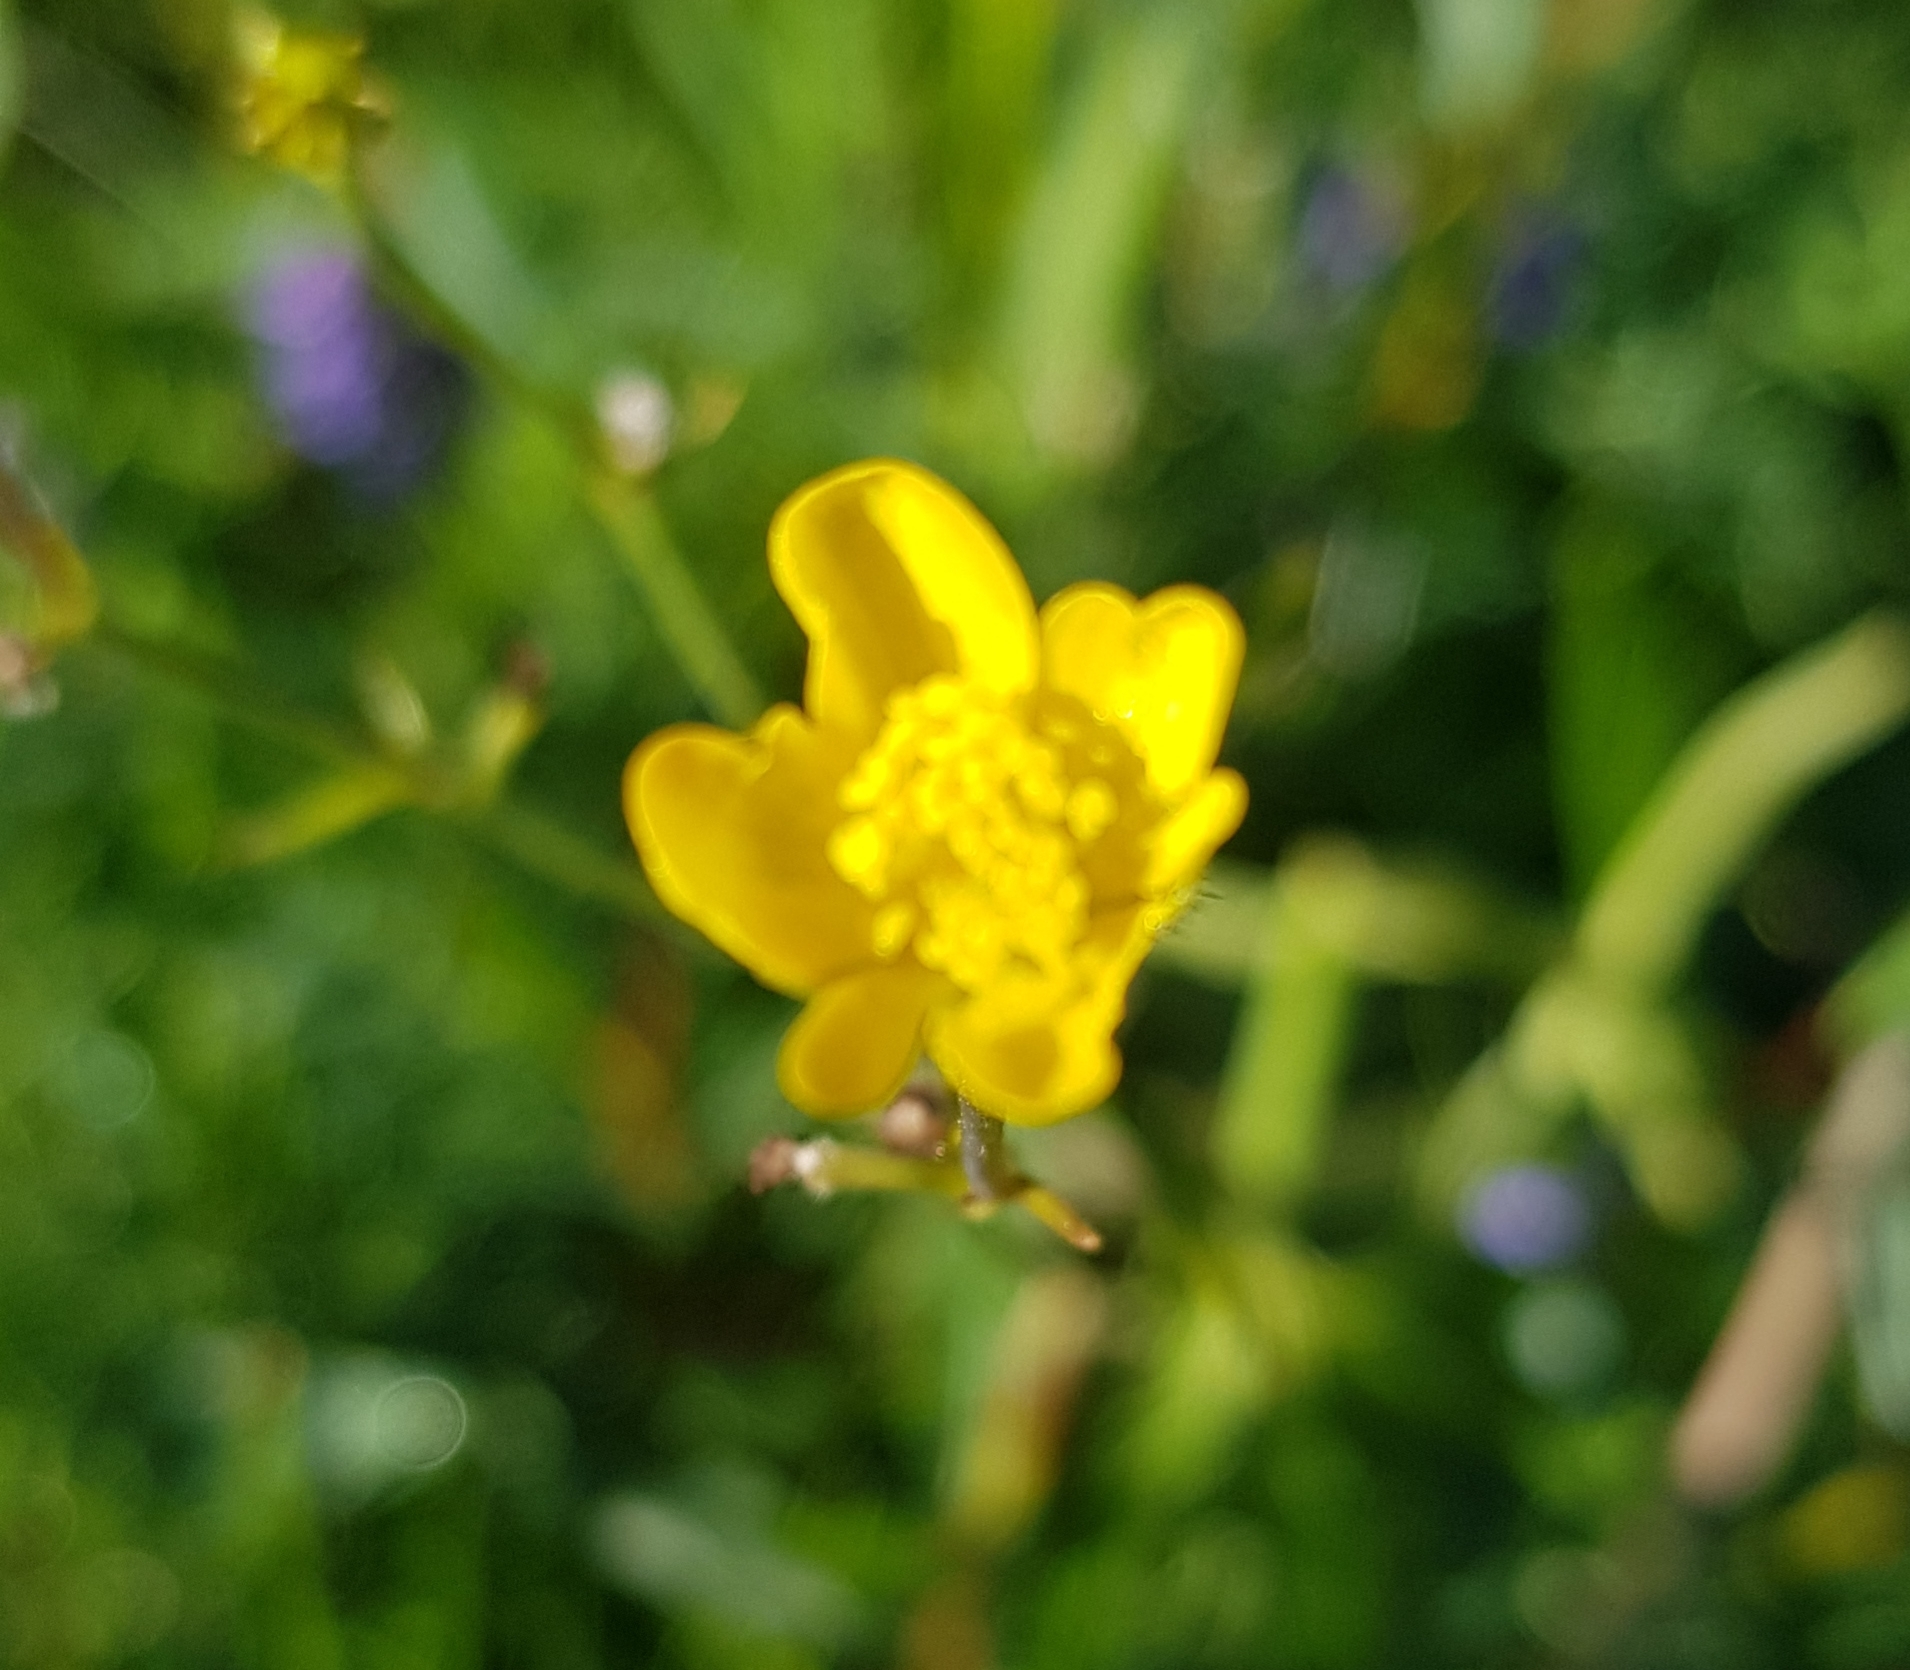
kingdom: Plantae
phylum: Tracheophyta
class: Magnoliopsida
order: Ranunculales
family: Ranunculaceae
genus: Ranunculus
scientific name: Ranunculus acris
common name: Meadow buttercup
